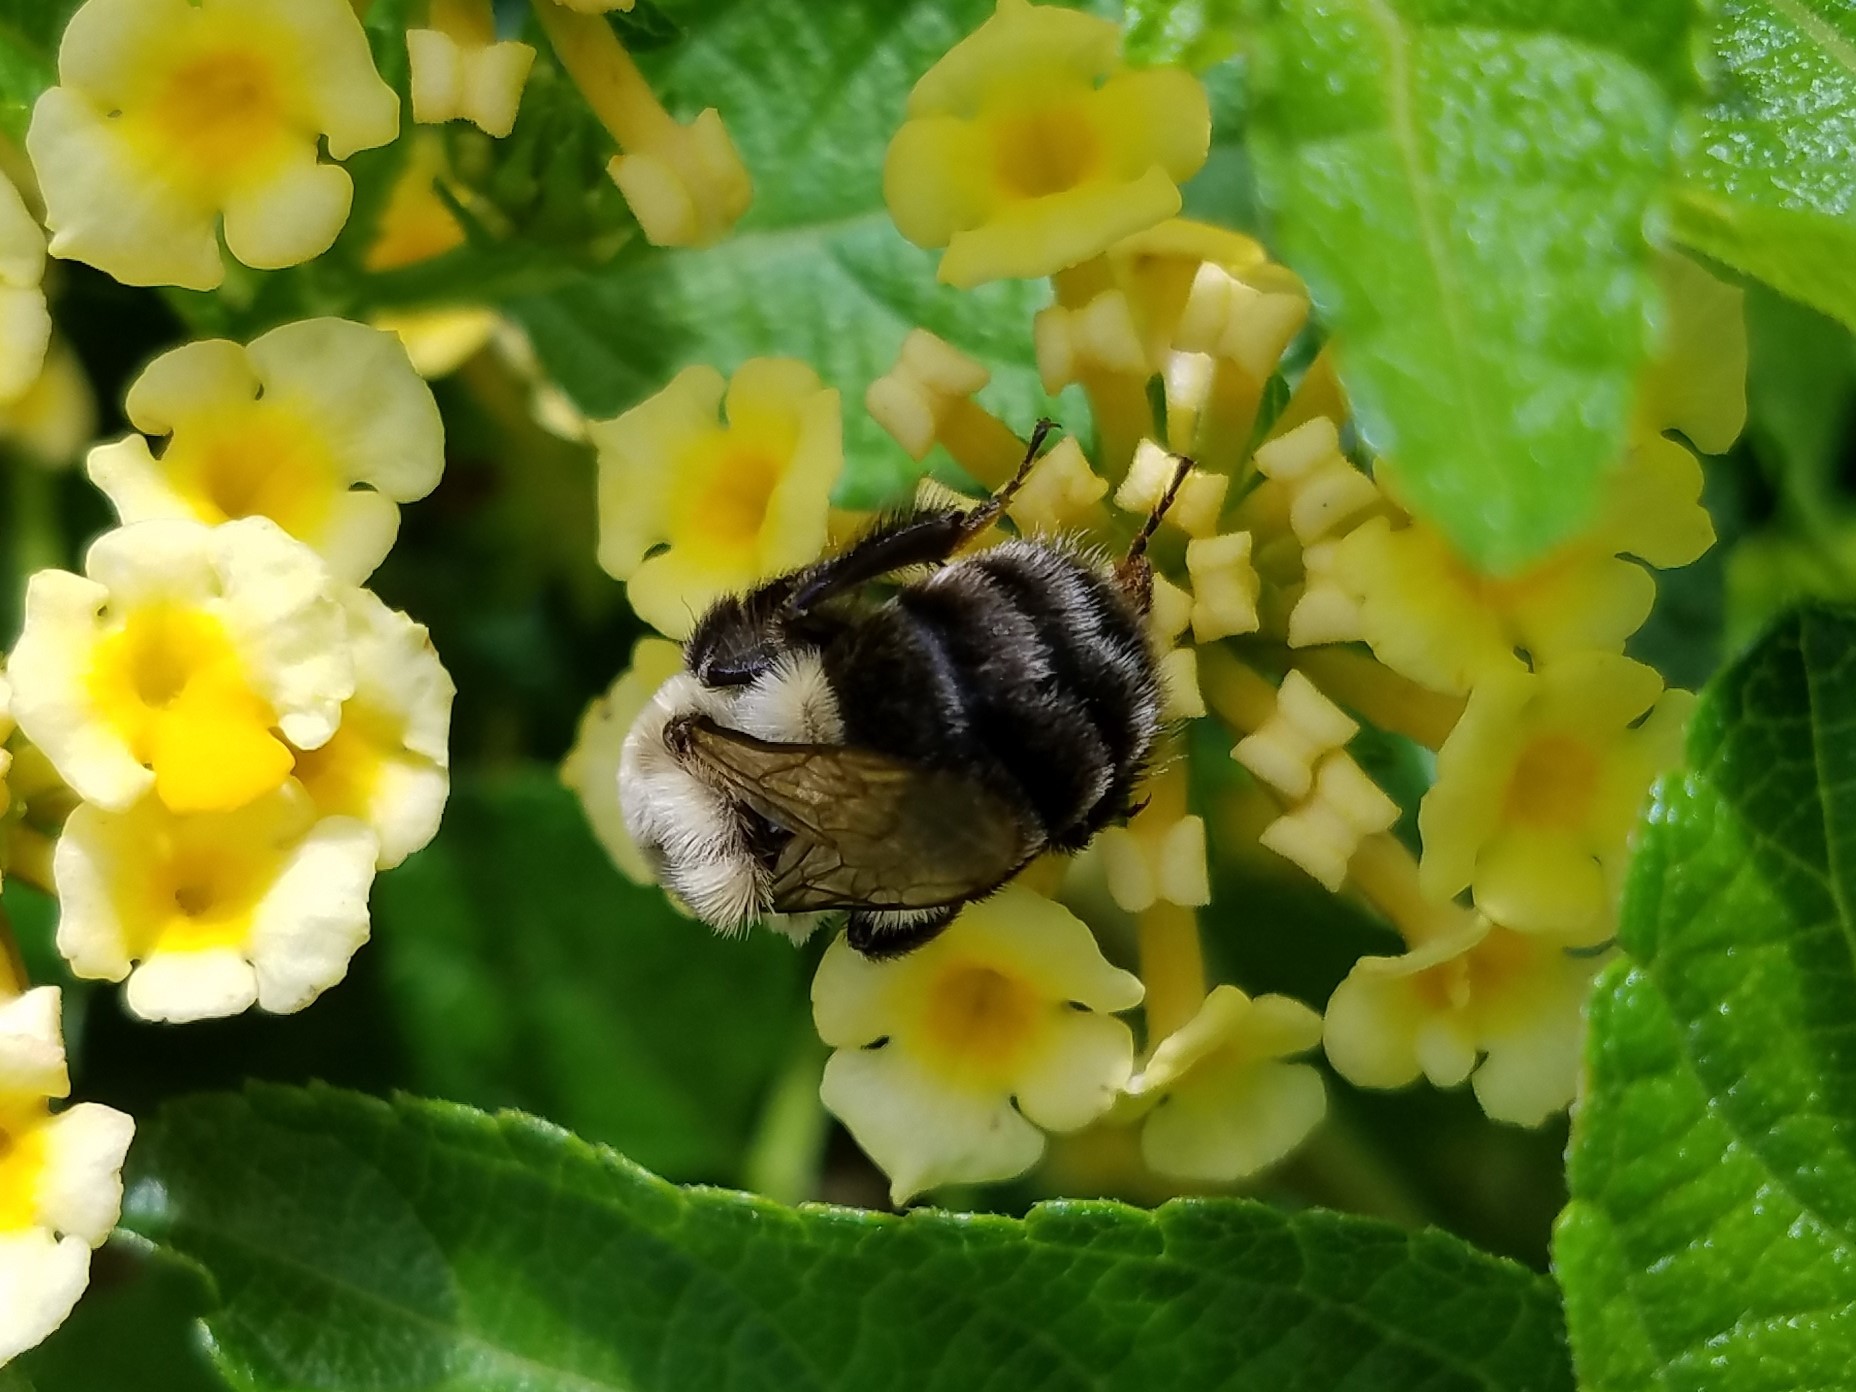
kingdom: Animalia
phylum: Arthropoda
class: Insecta
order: Hymenoptera
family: Apidae
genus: Bombus
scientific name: Bombus impatiens
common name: Common eastern bumble bee
